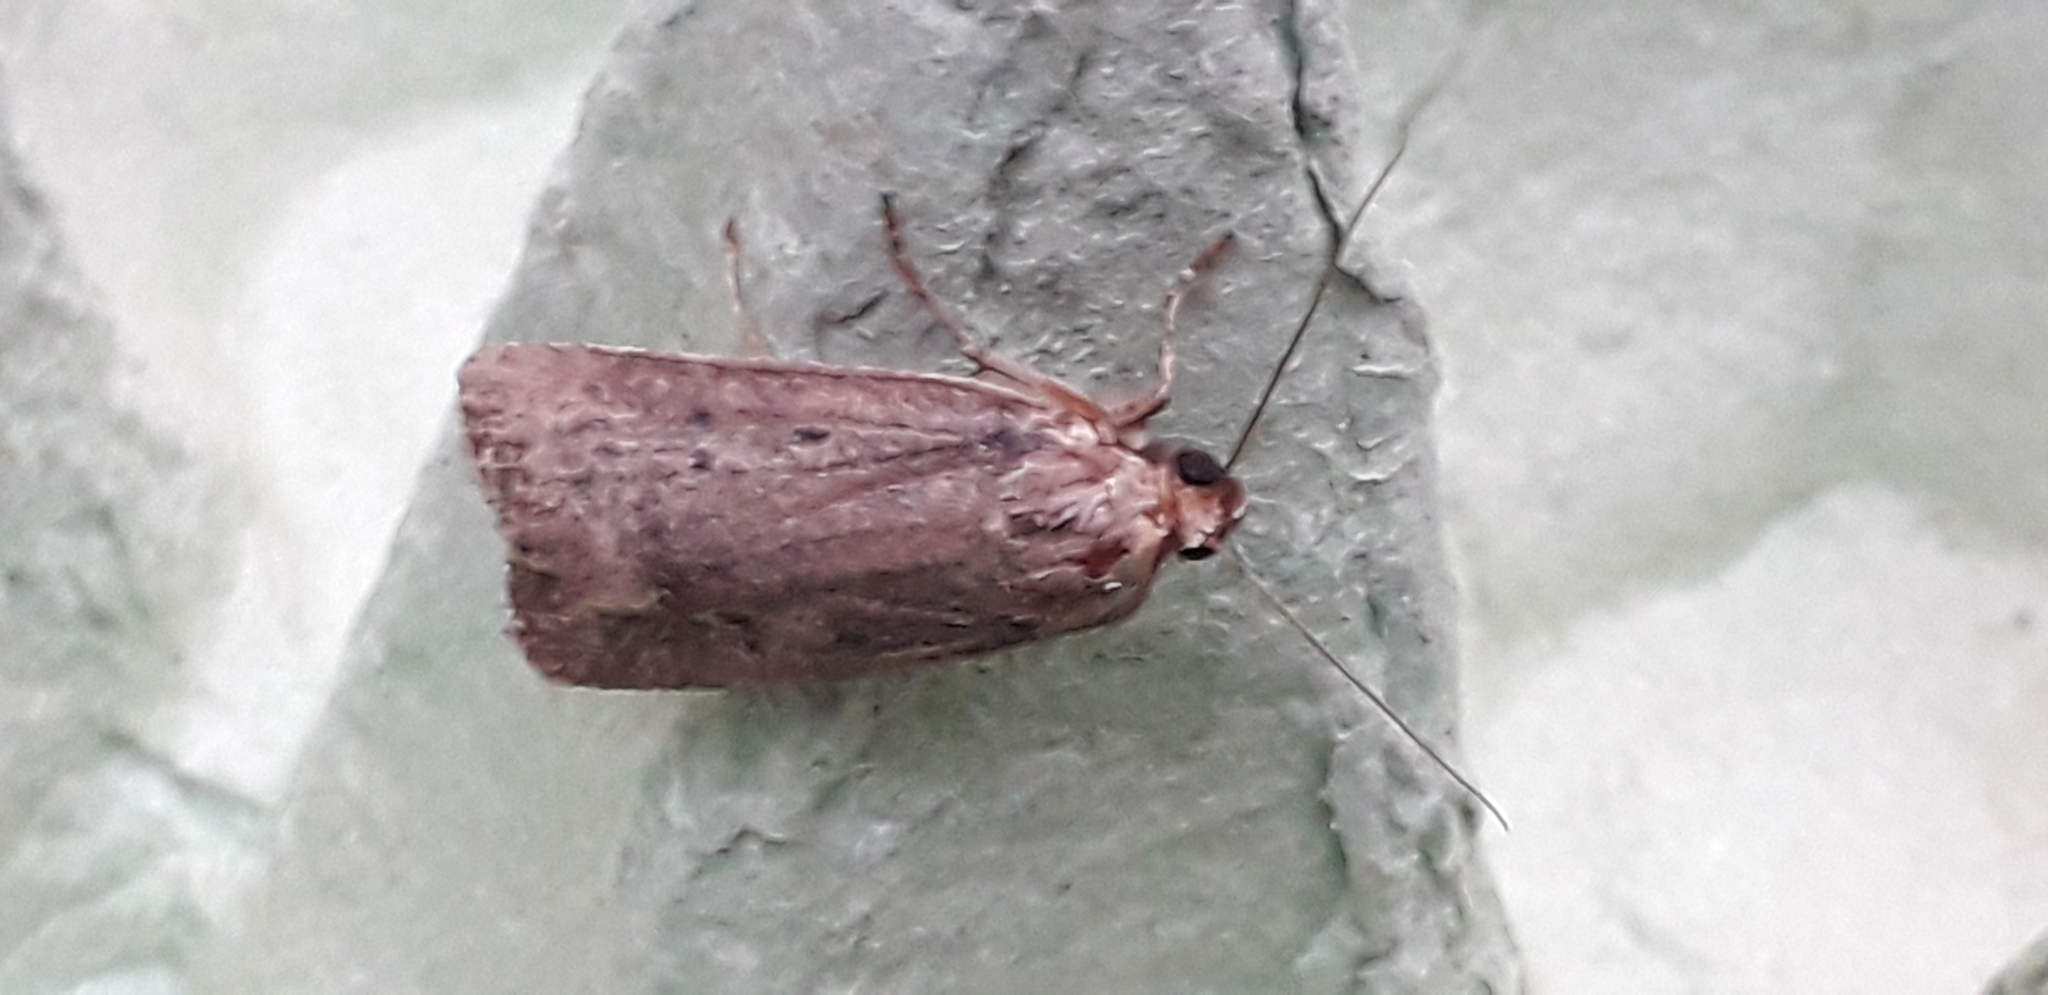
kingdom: Animalia
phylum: Arthropoda
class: Insecta
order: Lepidoptera
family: Noctuidae
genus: Amphipyra
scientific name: Amphipyra tragopoginis
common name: Mouse moth
